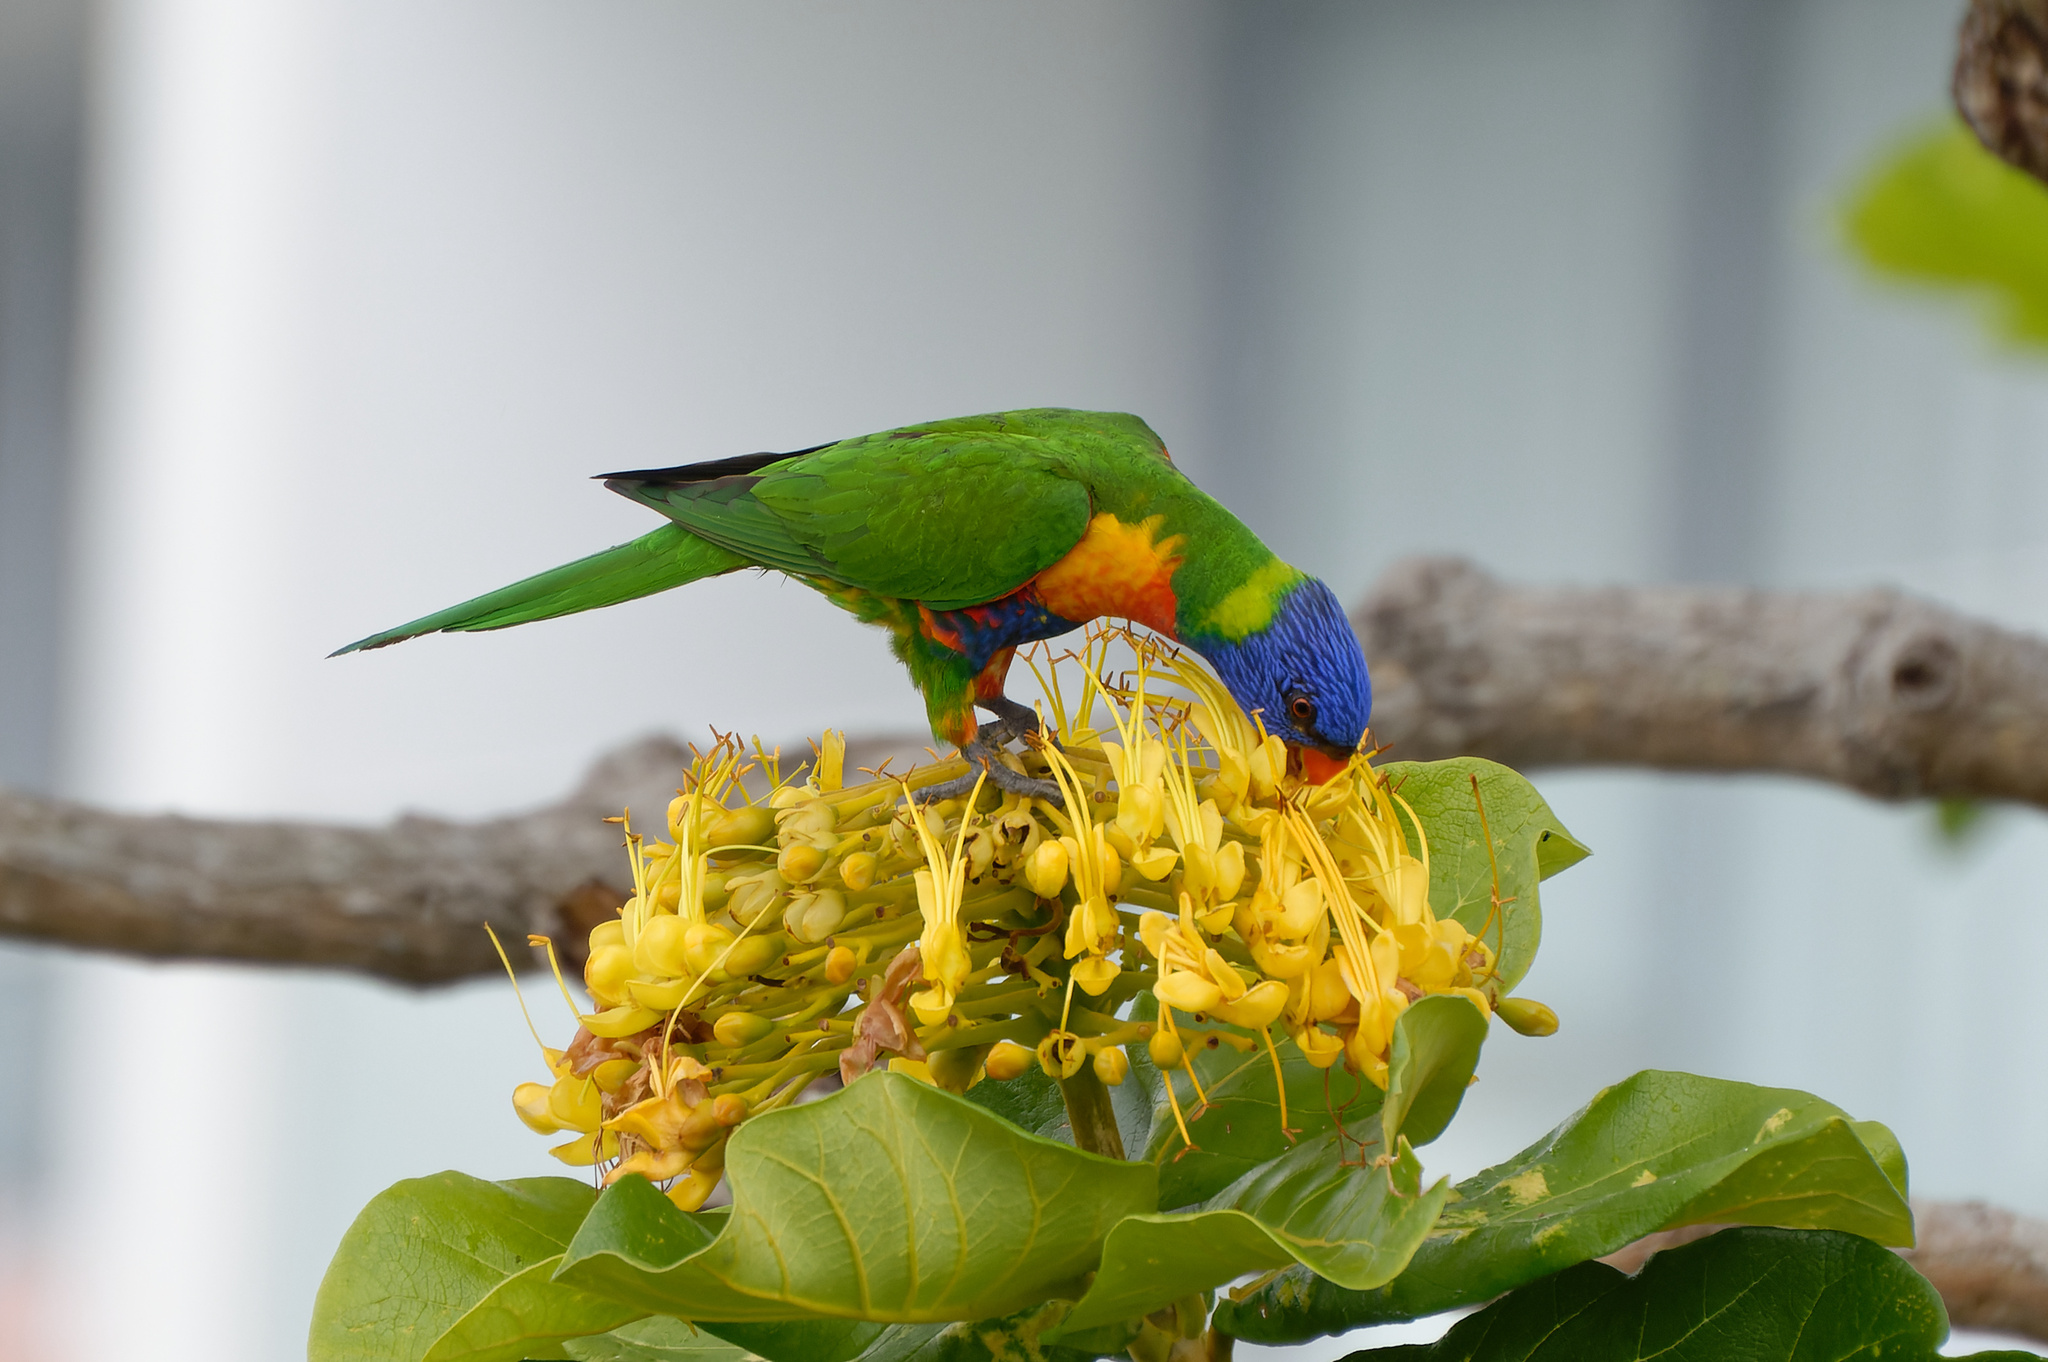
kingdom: Animalia
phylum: Chordata
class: Aves
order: Psittaciformes
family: Psittacidae
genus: Trichoglossus
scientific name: Trichoglossus haematodus
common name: Coconut lorikeet
